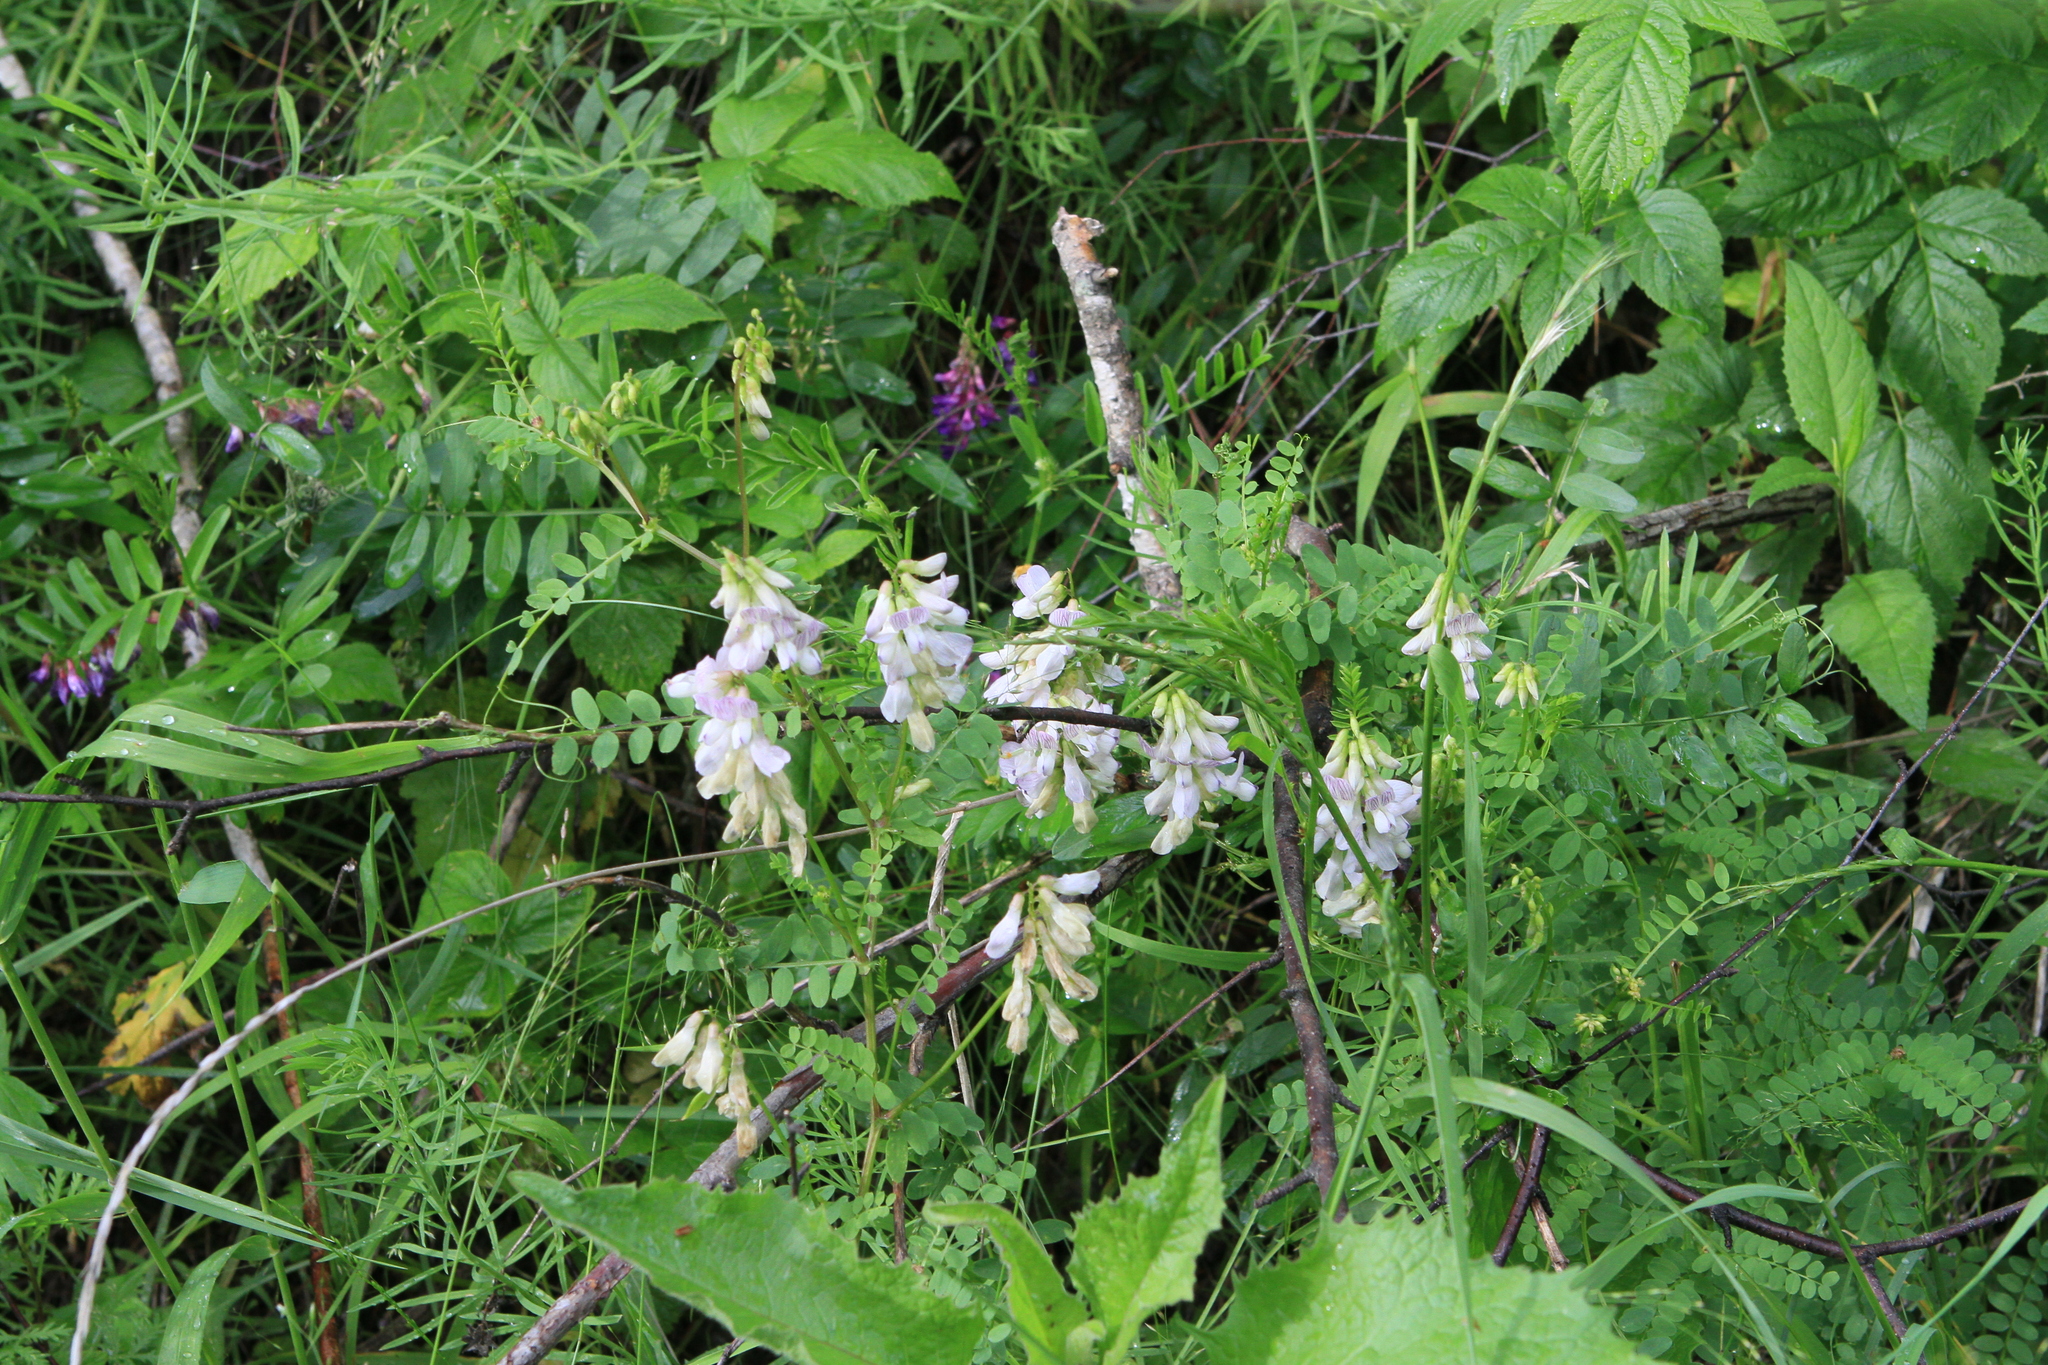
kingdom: Plantae
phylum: Tracheophyta
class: Magnoliopsida
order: Fabales
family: Fabaceae
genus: Vicia
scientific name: Vicia sylvatica
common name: Wood vetch
